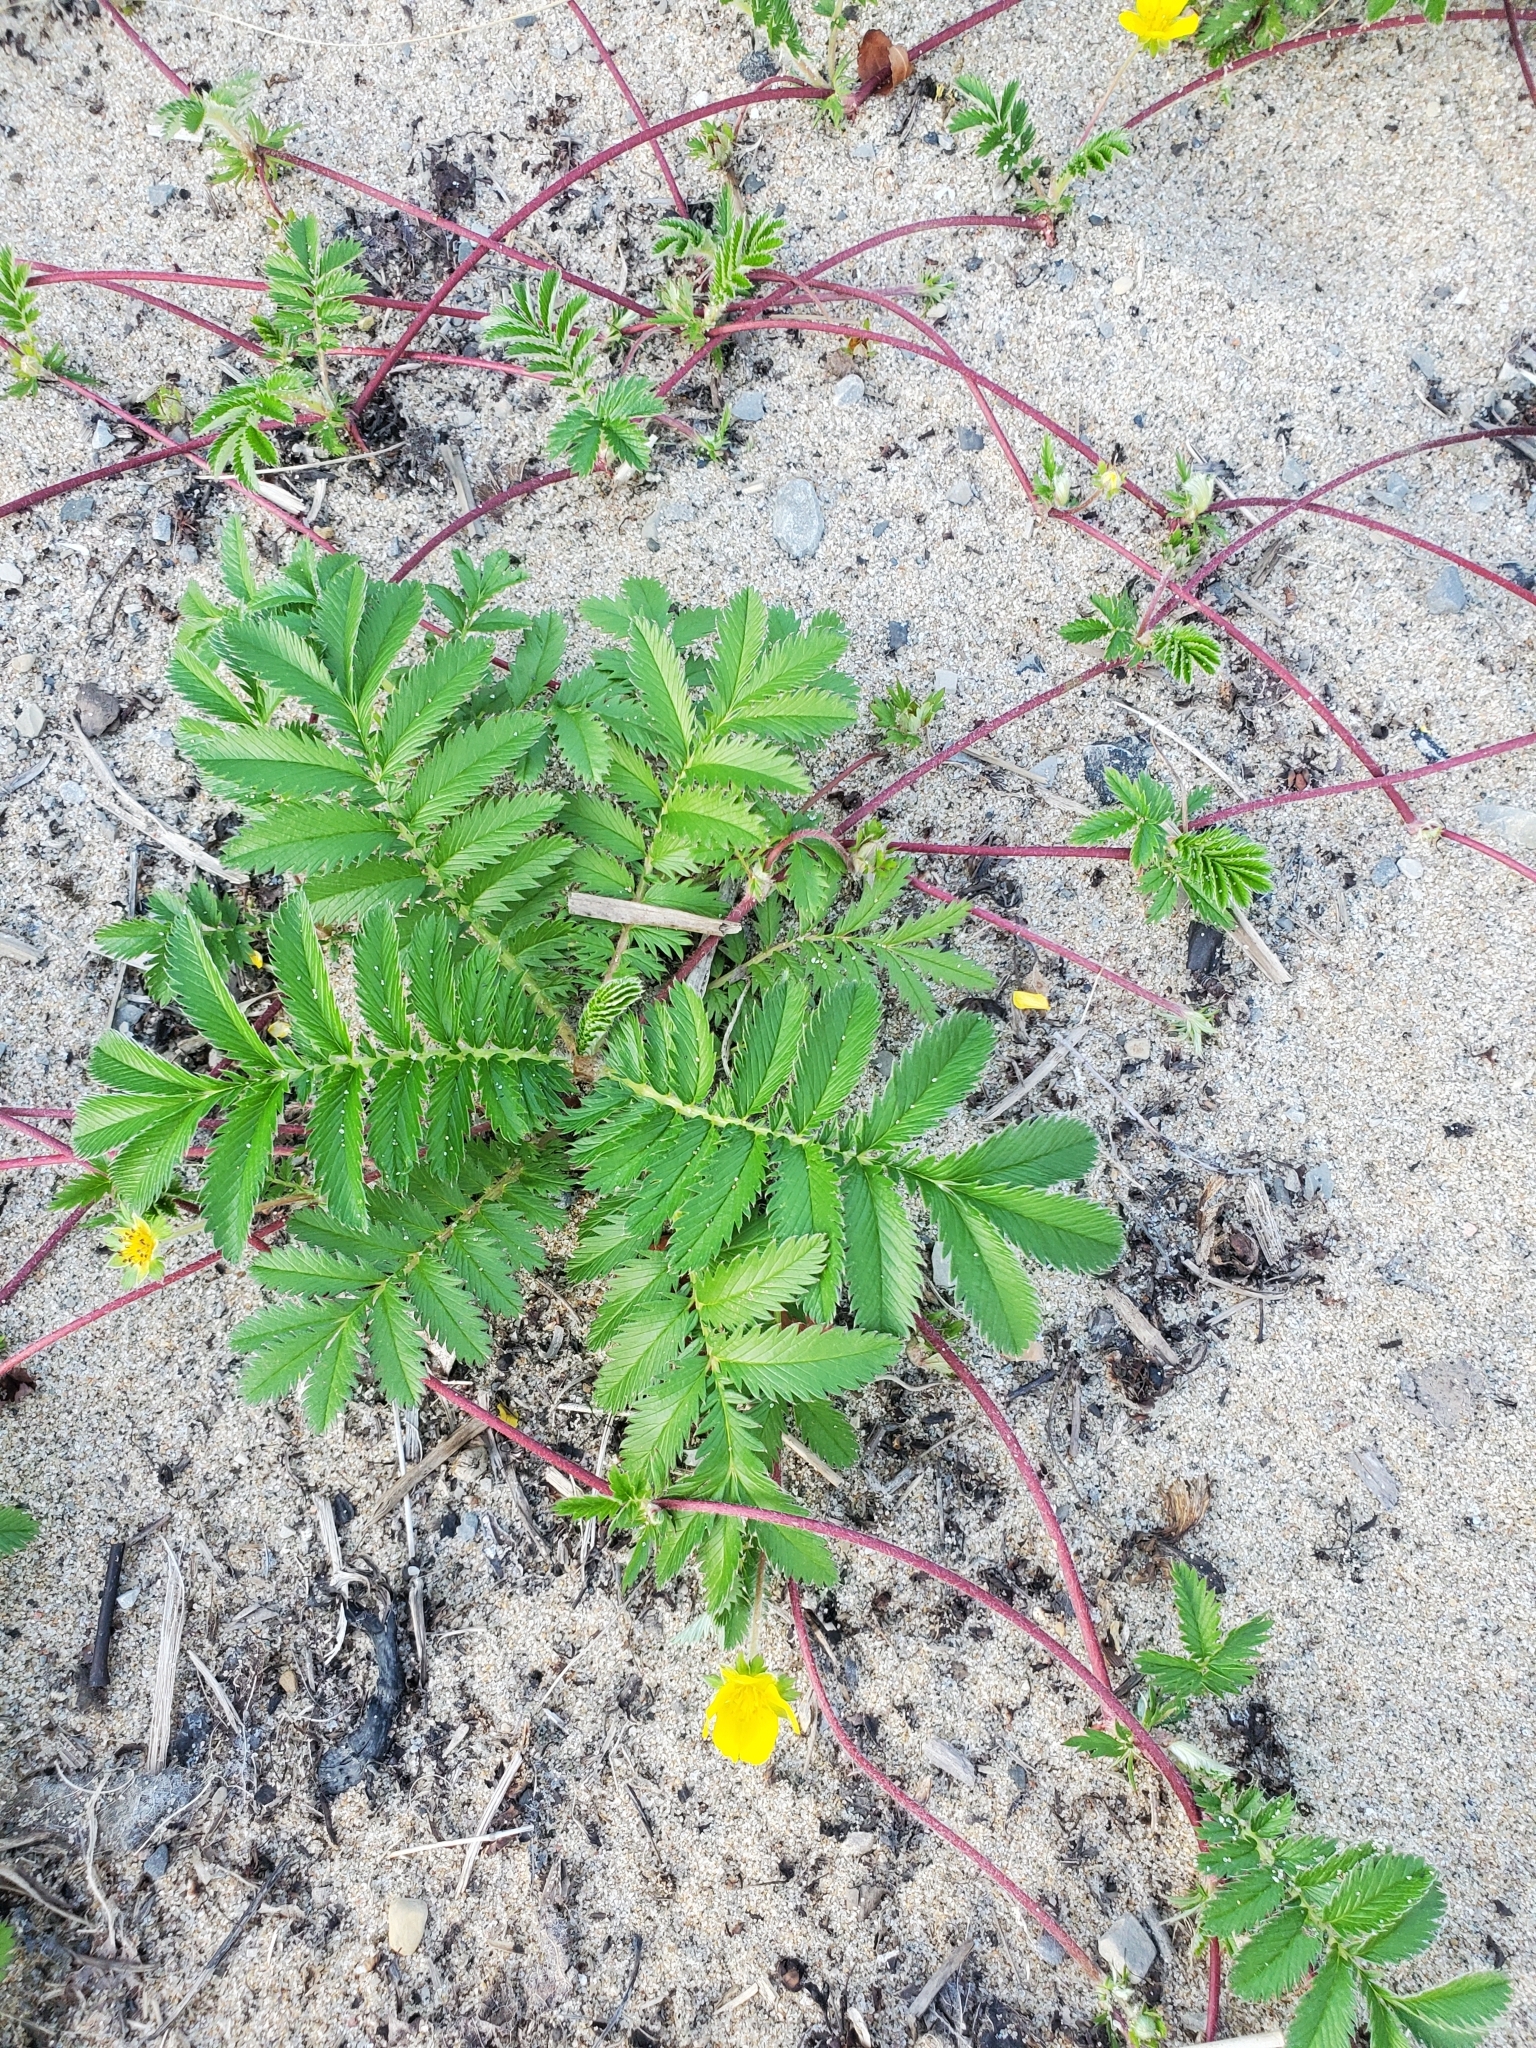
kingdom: Plantae
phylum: Tracheophyta
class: Magnoliopsida
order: Rosales
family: Rosaceae
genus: Argentina
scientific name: Argentina anserina
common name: Common silverweed
